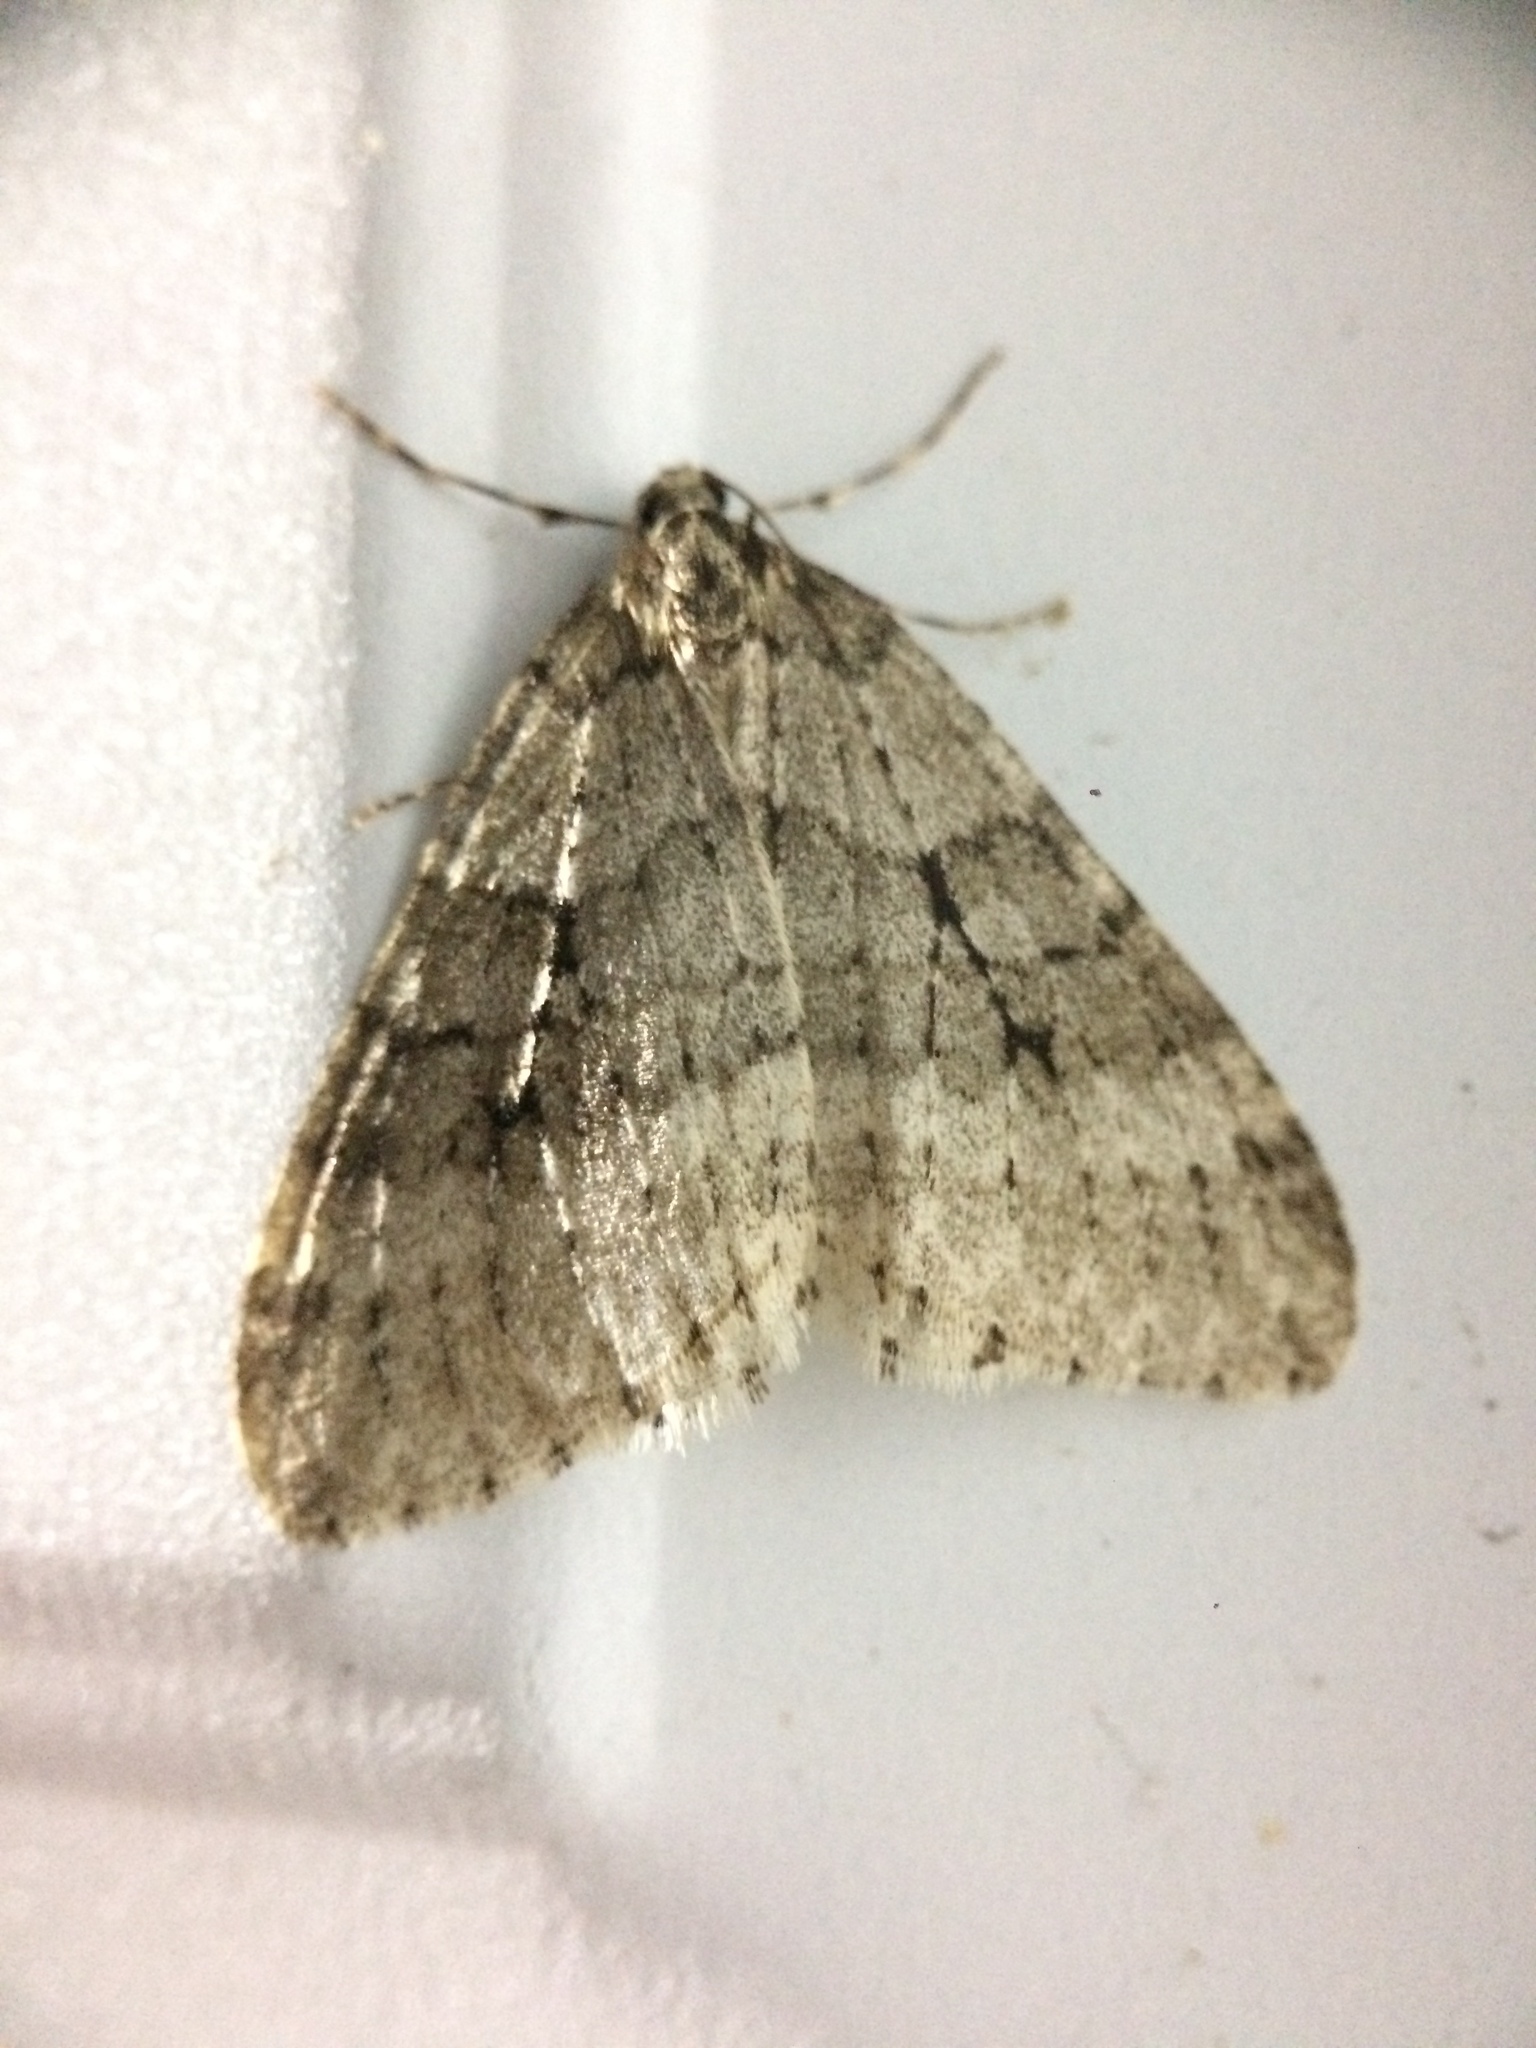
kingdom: Animalia
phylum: Arthropoda
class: Insecta
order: Lepidoptera
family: Geometridae
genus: Operophtera
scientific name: Operophtera
